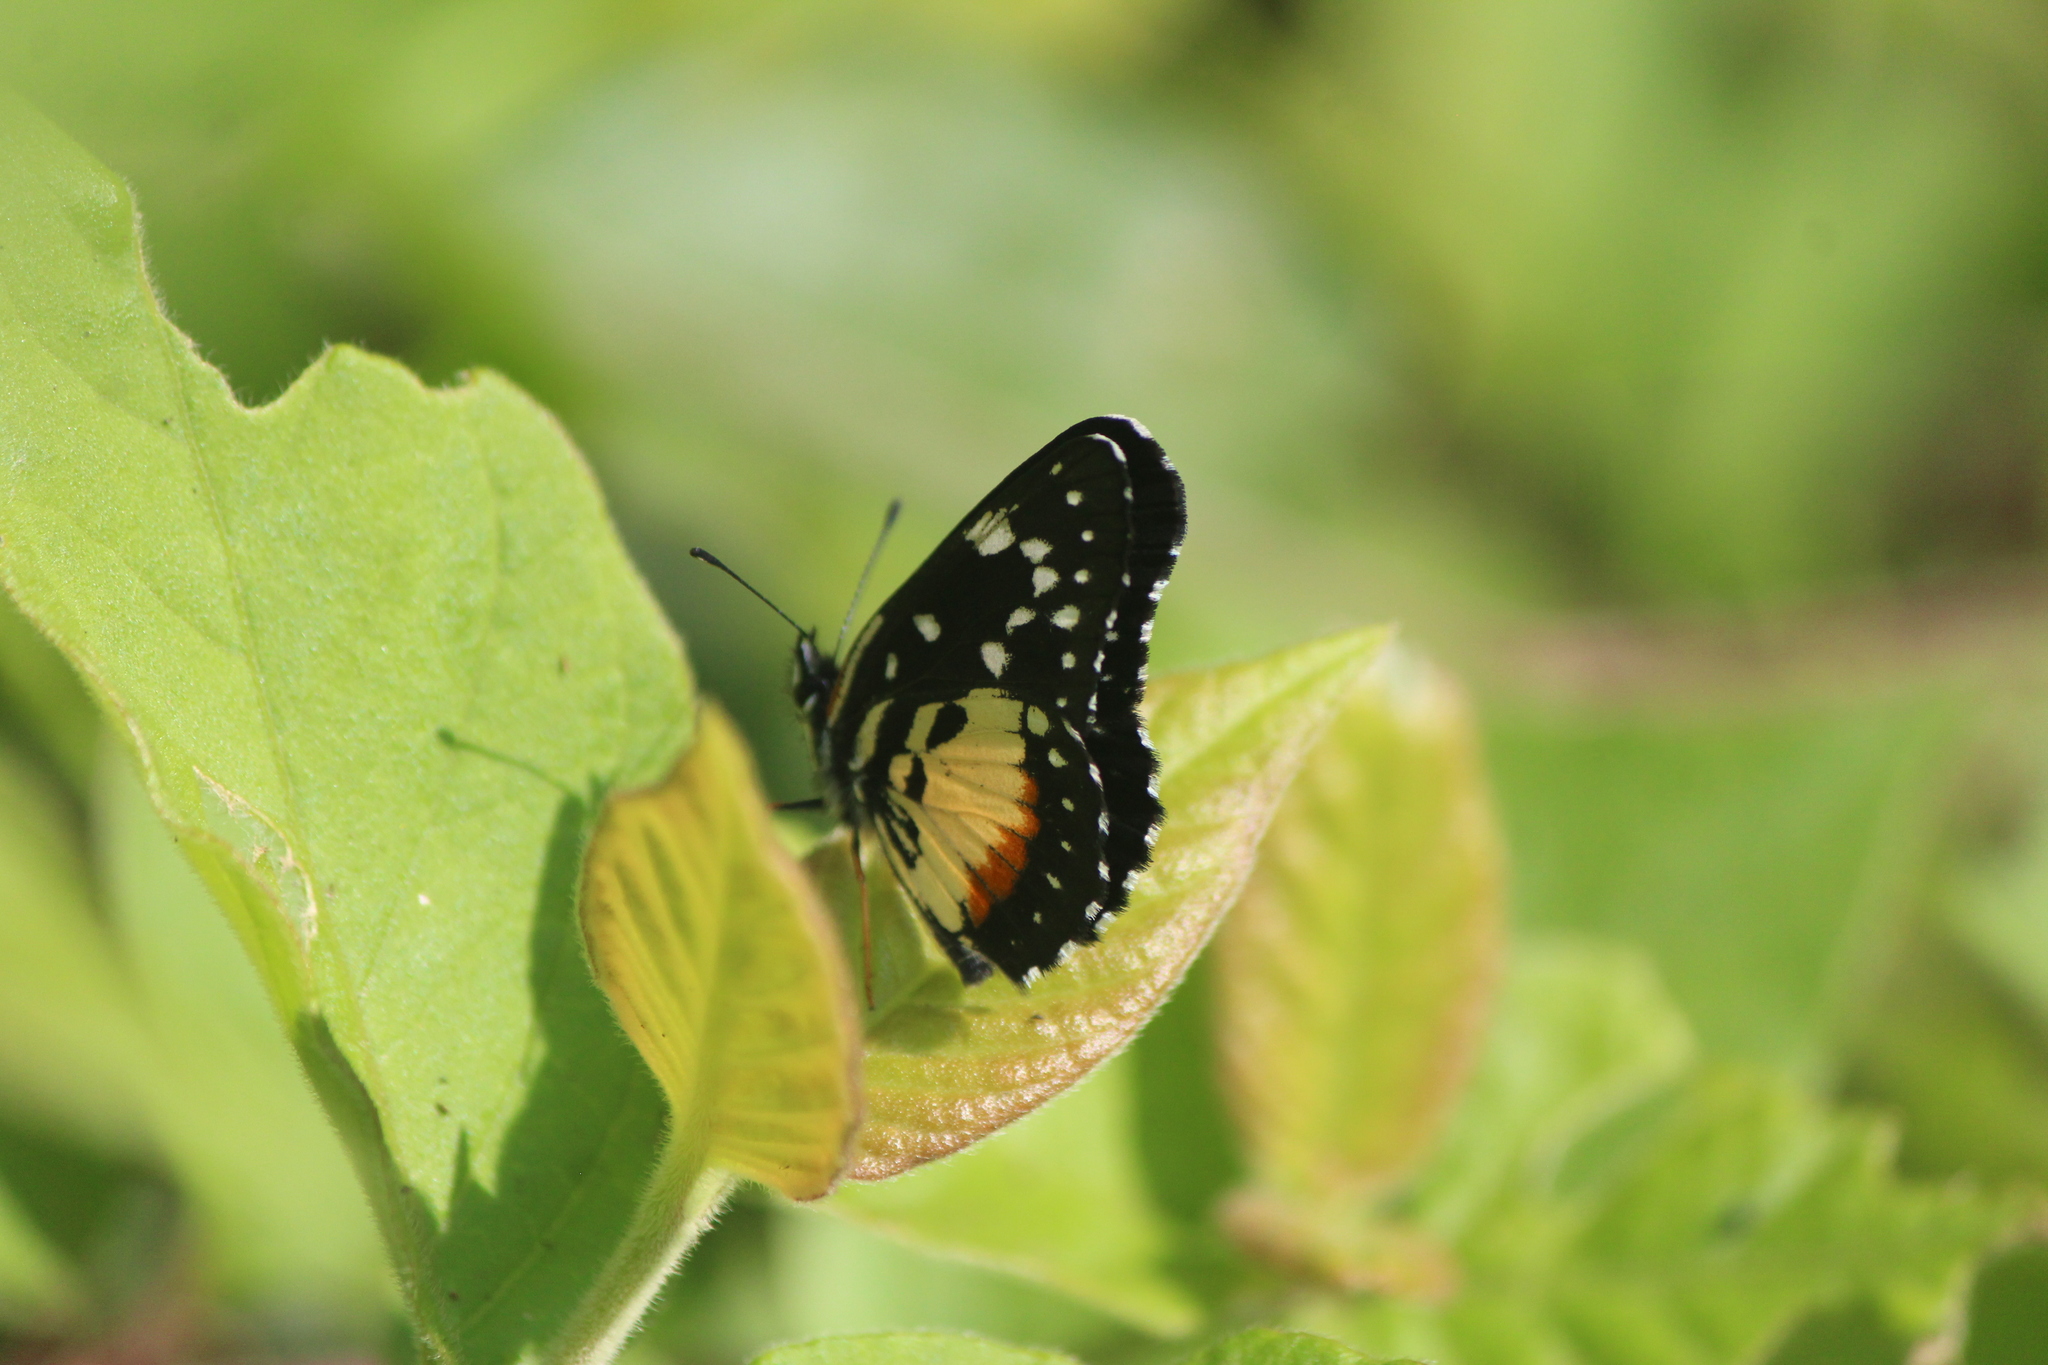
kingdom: Animalia
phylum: Arthropoda
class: Insecta
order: Lepidoptera
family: Nymphalidae
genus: Chlosyne
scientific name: Chlosyne rosita
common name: Rosita patch
